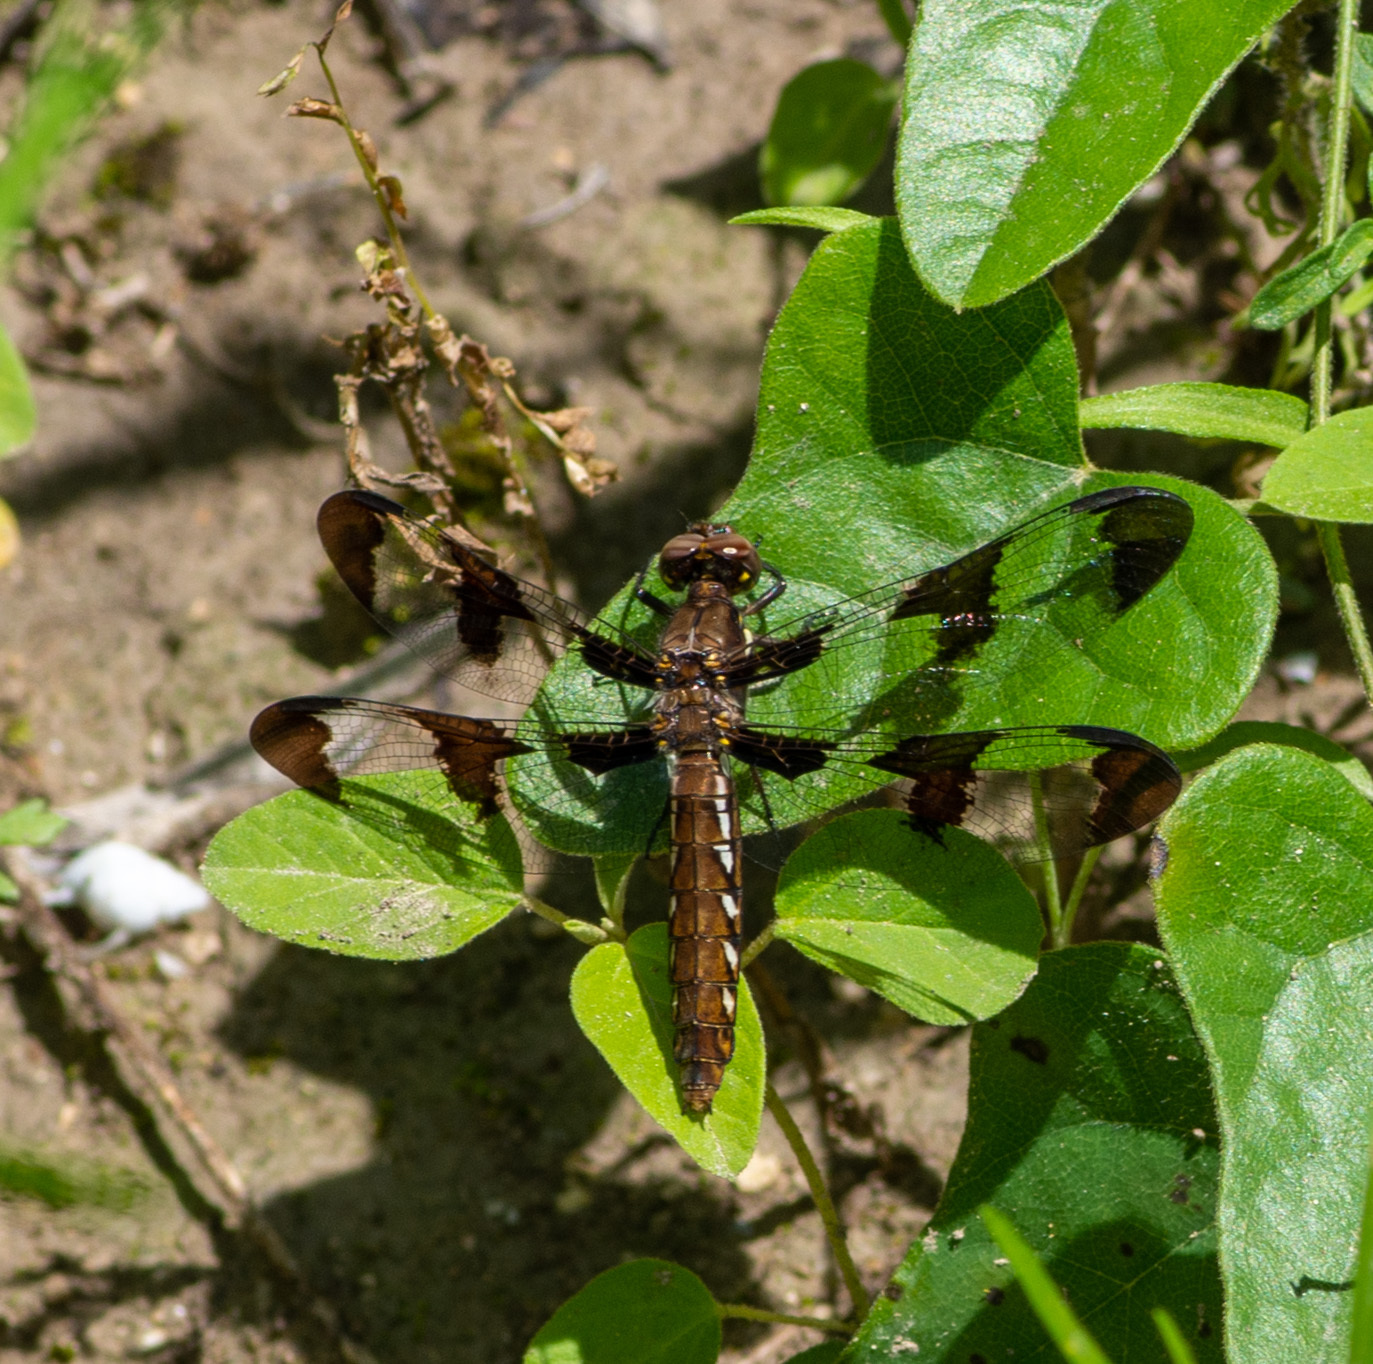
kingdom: Animalia
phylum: Arthropoda
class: Insecta
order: Odonata
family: Libellulidae
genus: Plathemis
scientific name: Plathemis lydia
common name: Common whitetail
